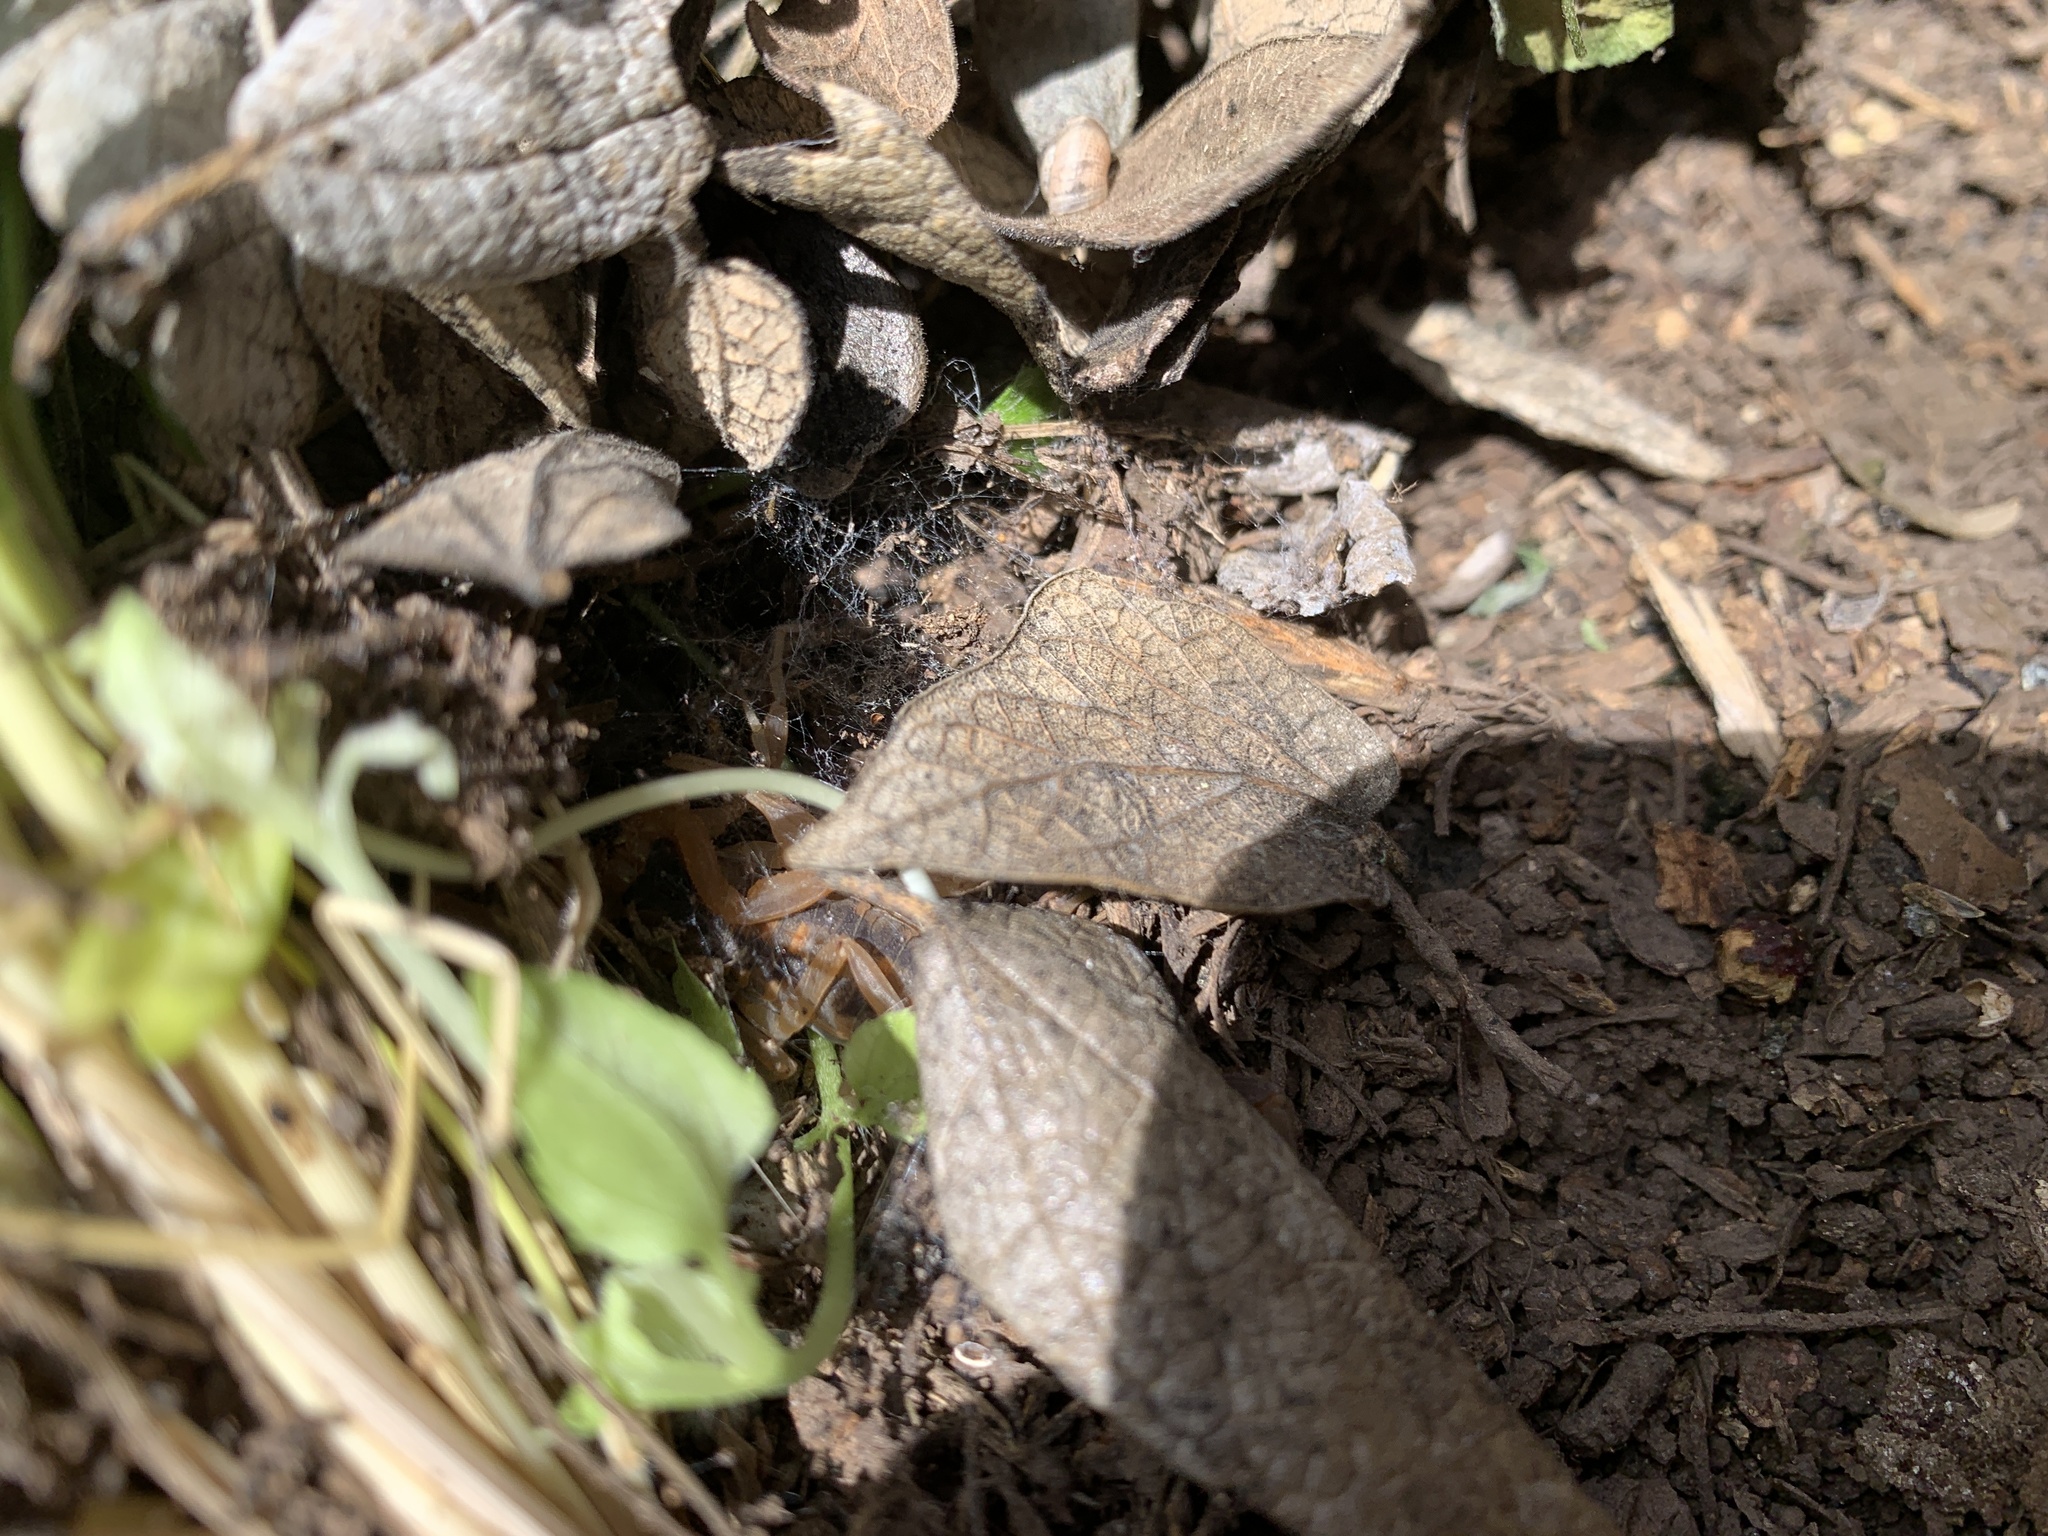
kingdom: Animalia
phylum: Arthropoda
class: Arachnida
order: Scorpiones
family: Buthidae
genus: Centruroides
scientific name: Centruroides vittatus
